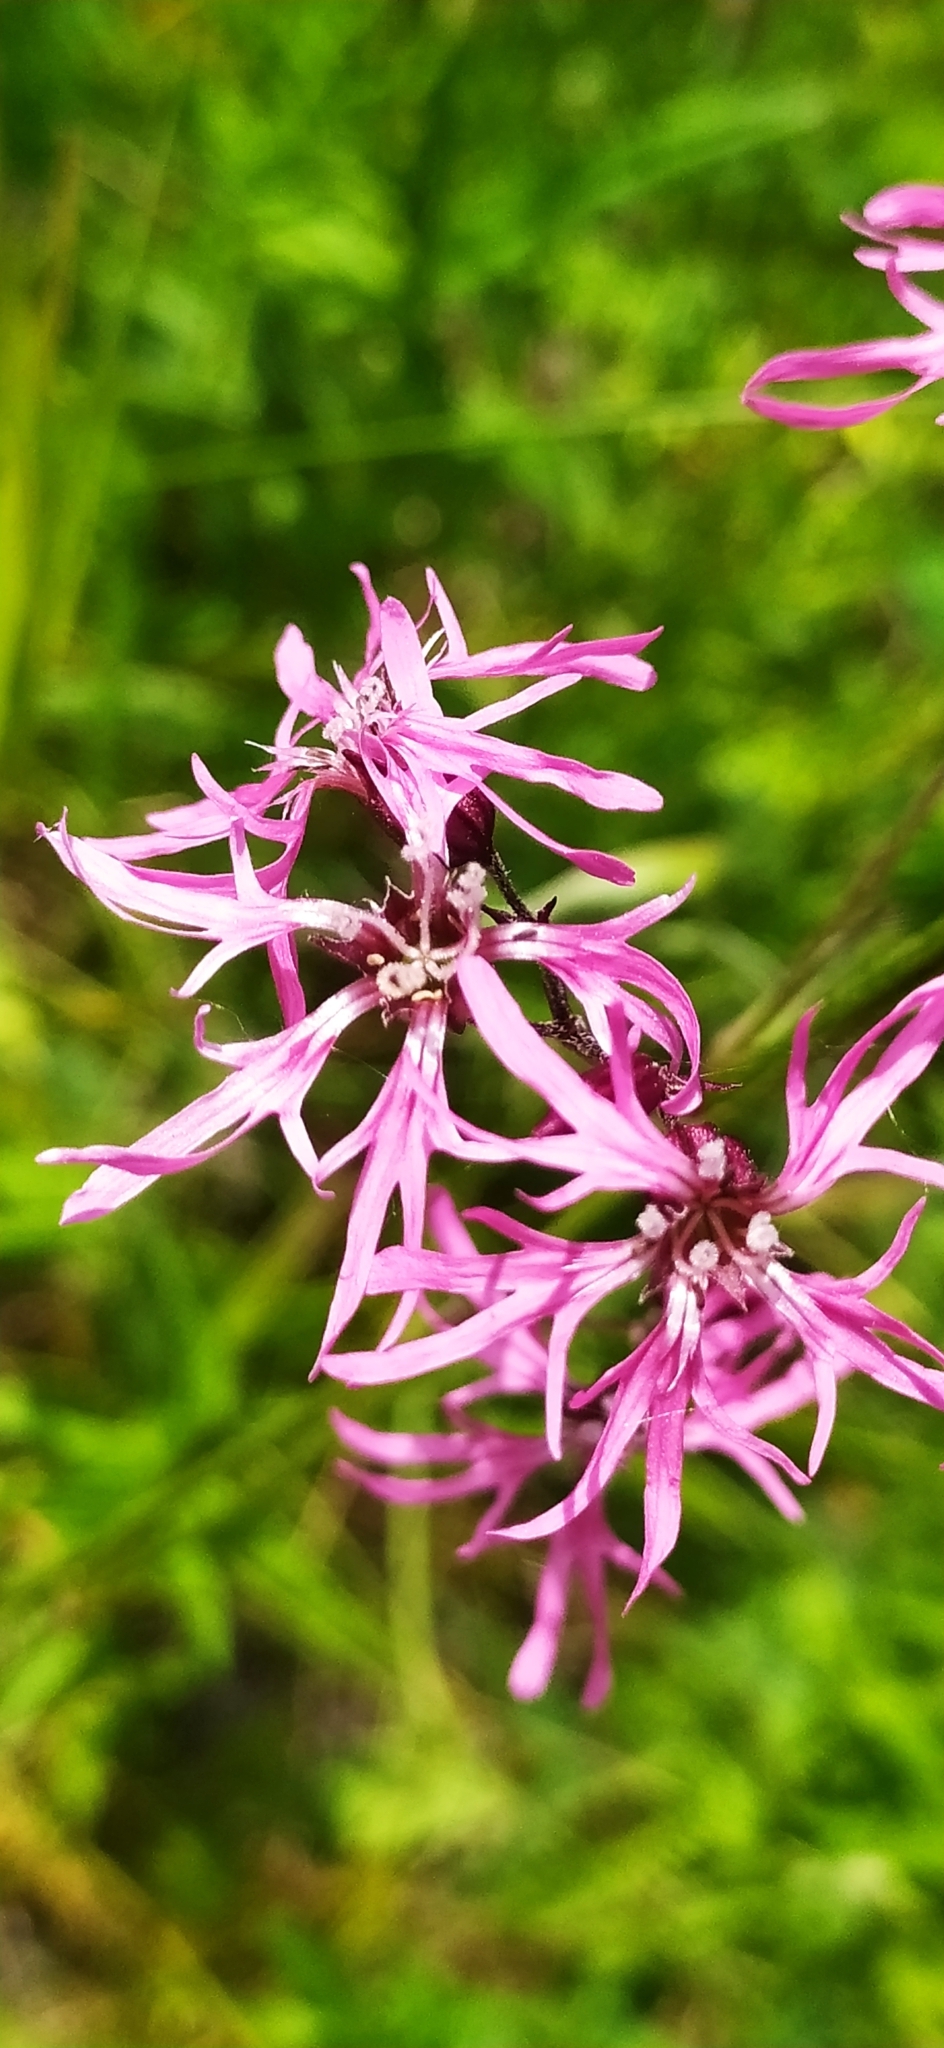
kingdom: Plantae
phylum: Tracheophyta
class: Magnoliopsida
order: Caryophyllales
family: Caryophyllaceae
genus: Silene
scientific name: Silene flos-cuculi
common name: Ragged-robin
